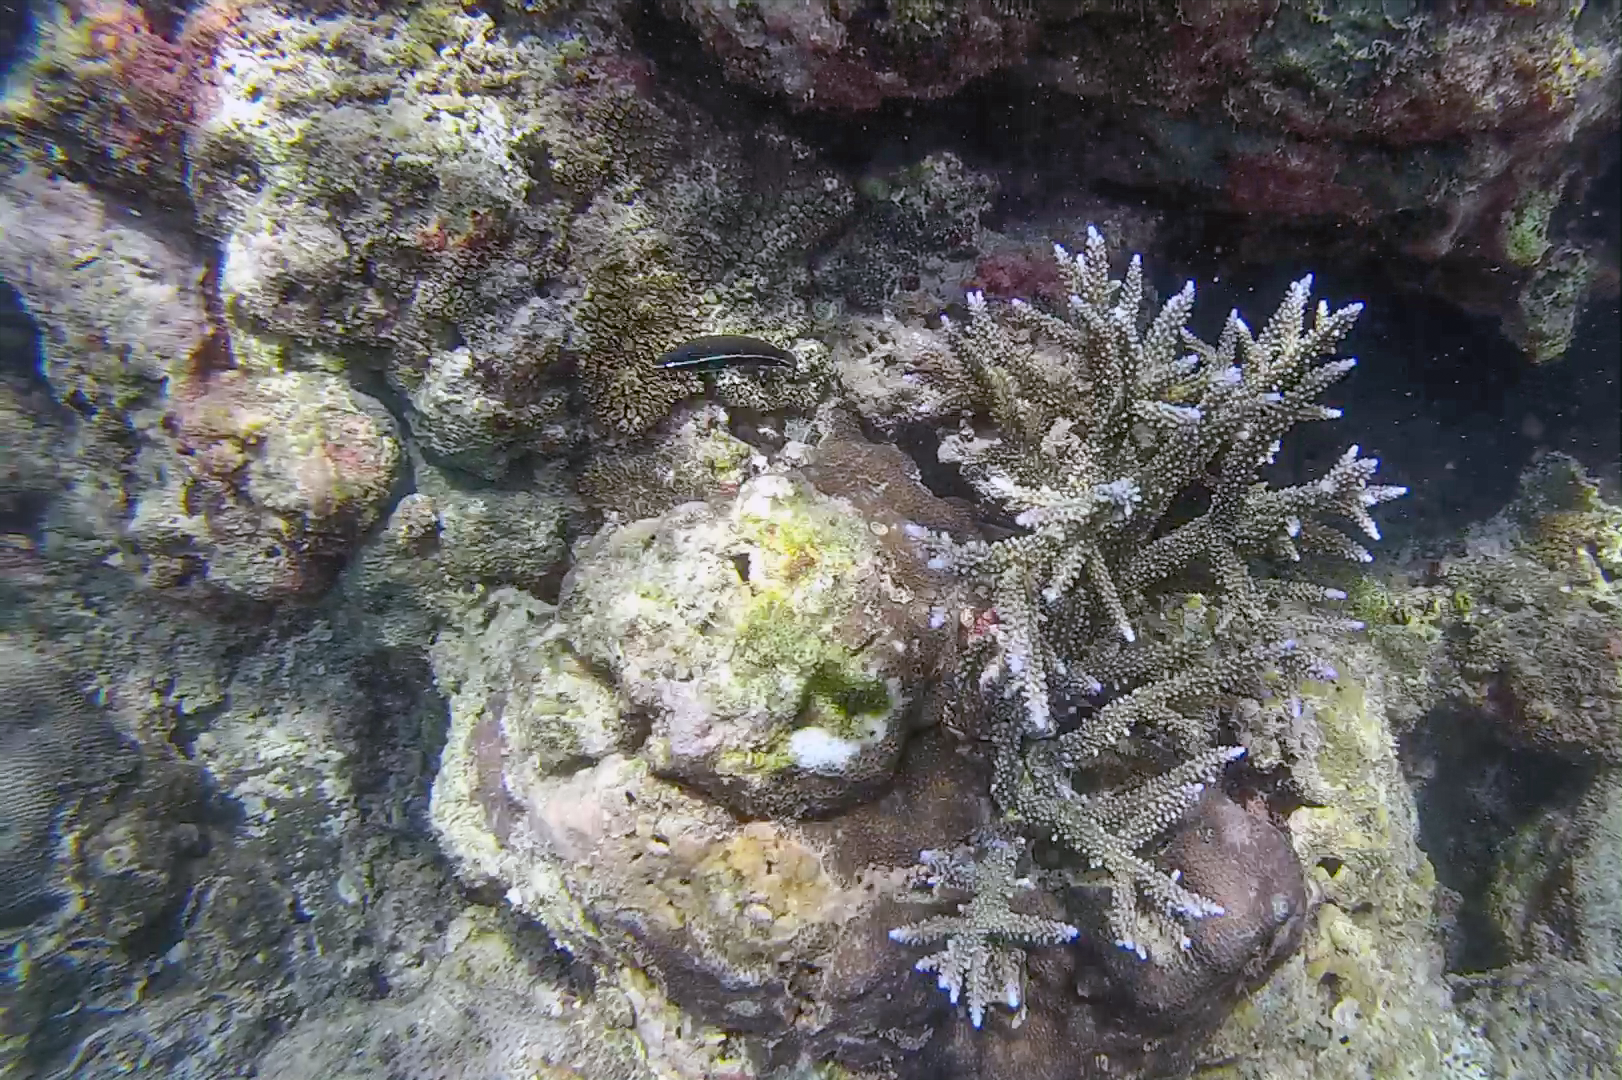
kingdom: Animalia
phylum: Chordata
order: Perciformes
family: Labridae
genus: Labrichthys
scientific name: Labrichthys unilineatus
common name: Onelined wrasse
